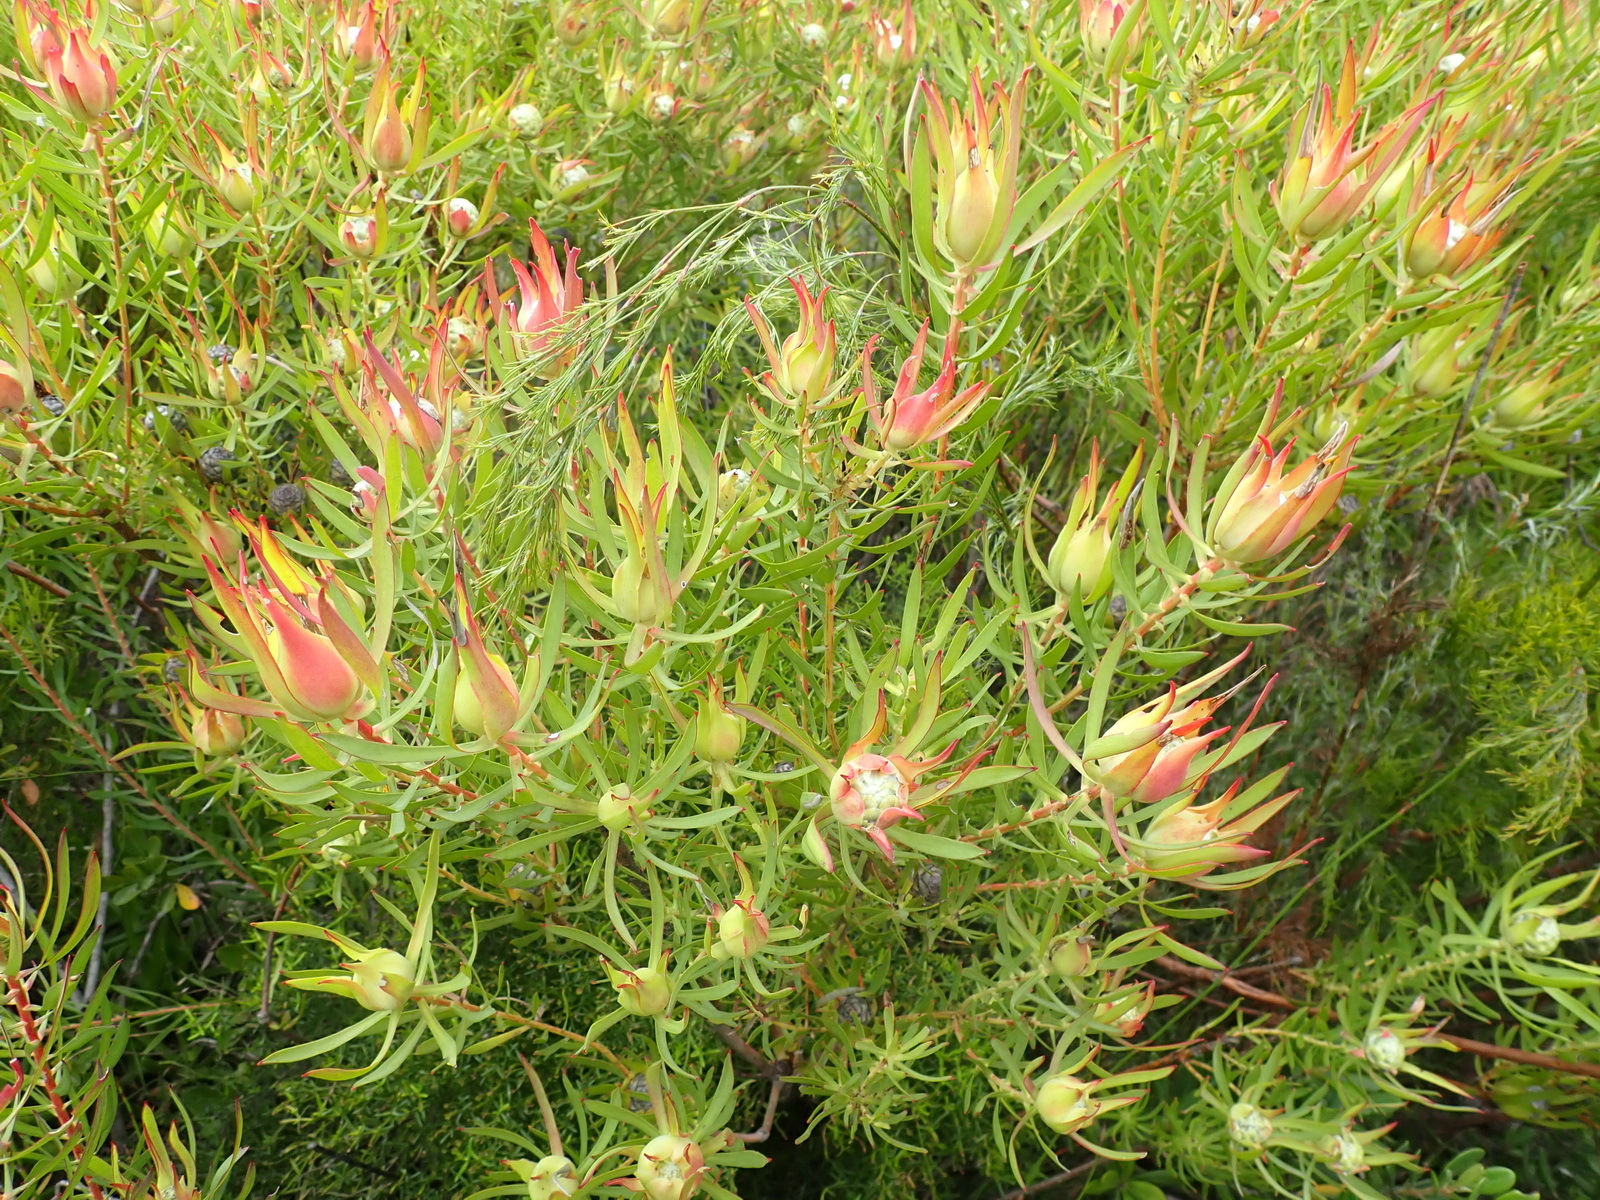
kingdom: Plantae
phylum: Tracheophyta
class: Magnoliopsida
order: Proteales
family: Proteaceae
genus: Leucadendron
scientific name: Leucadendron salignum
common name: Common sunshine conebush
